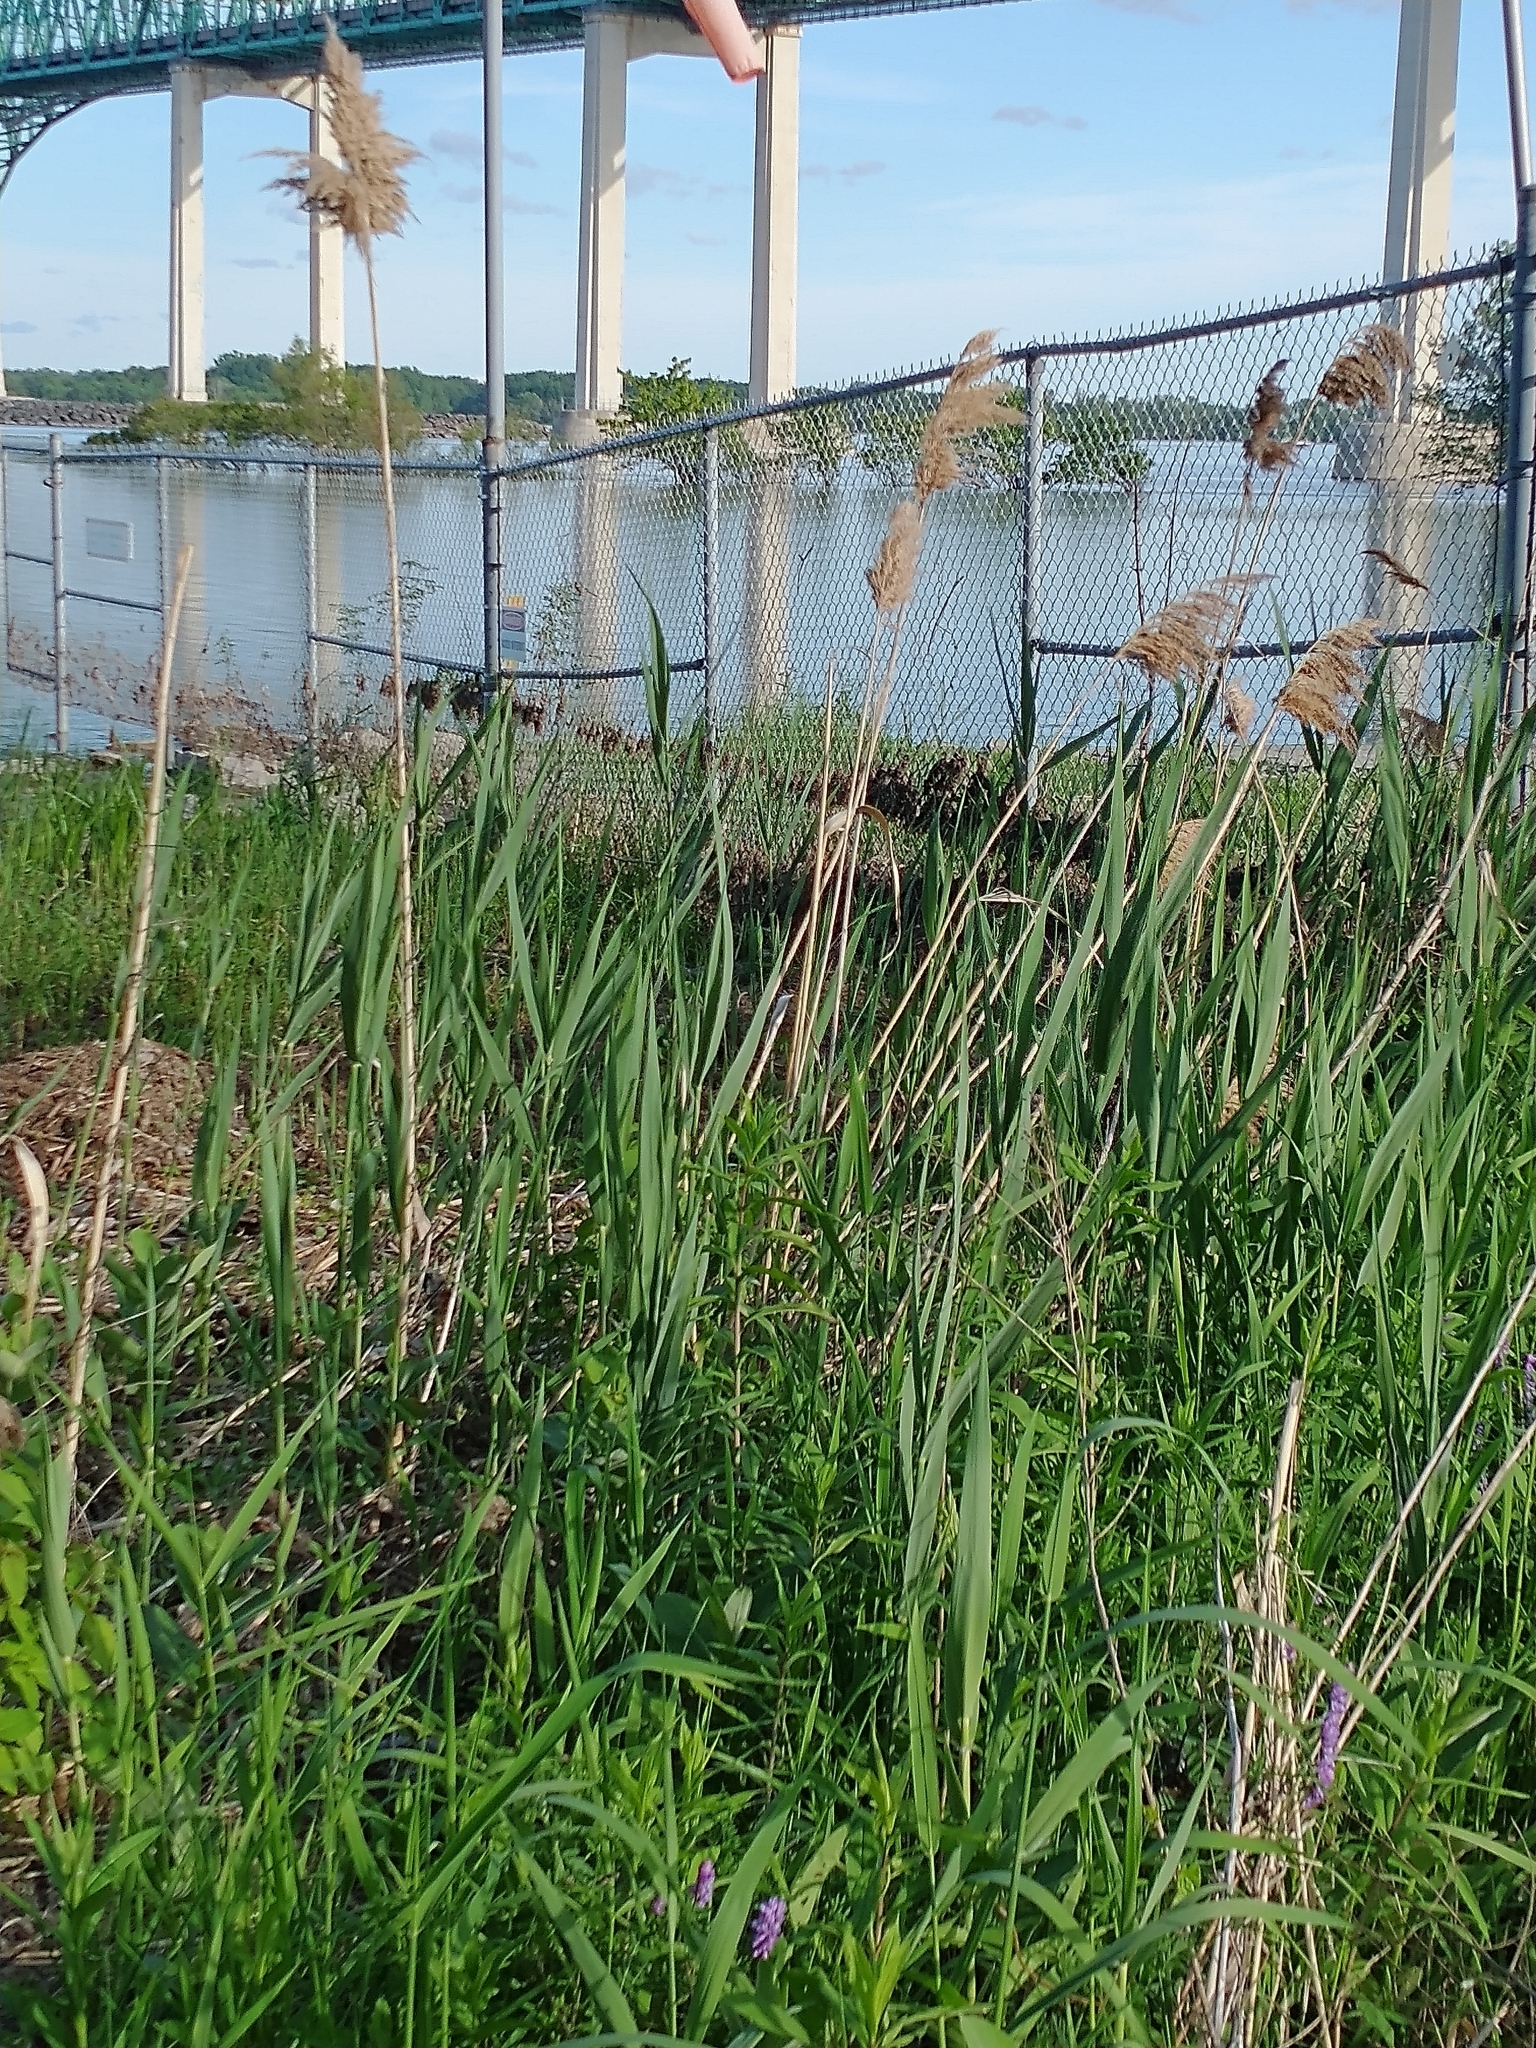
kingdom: Plantae
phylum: Tracheophyta
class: Liliopsida
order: Poales
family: Poaceae
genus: Phragmites
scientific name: Phragmites australis
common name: Common reed
